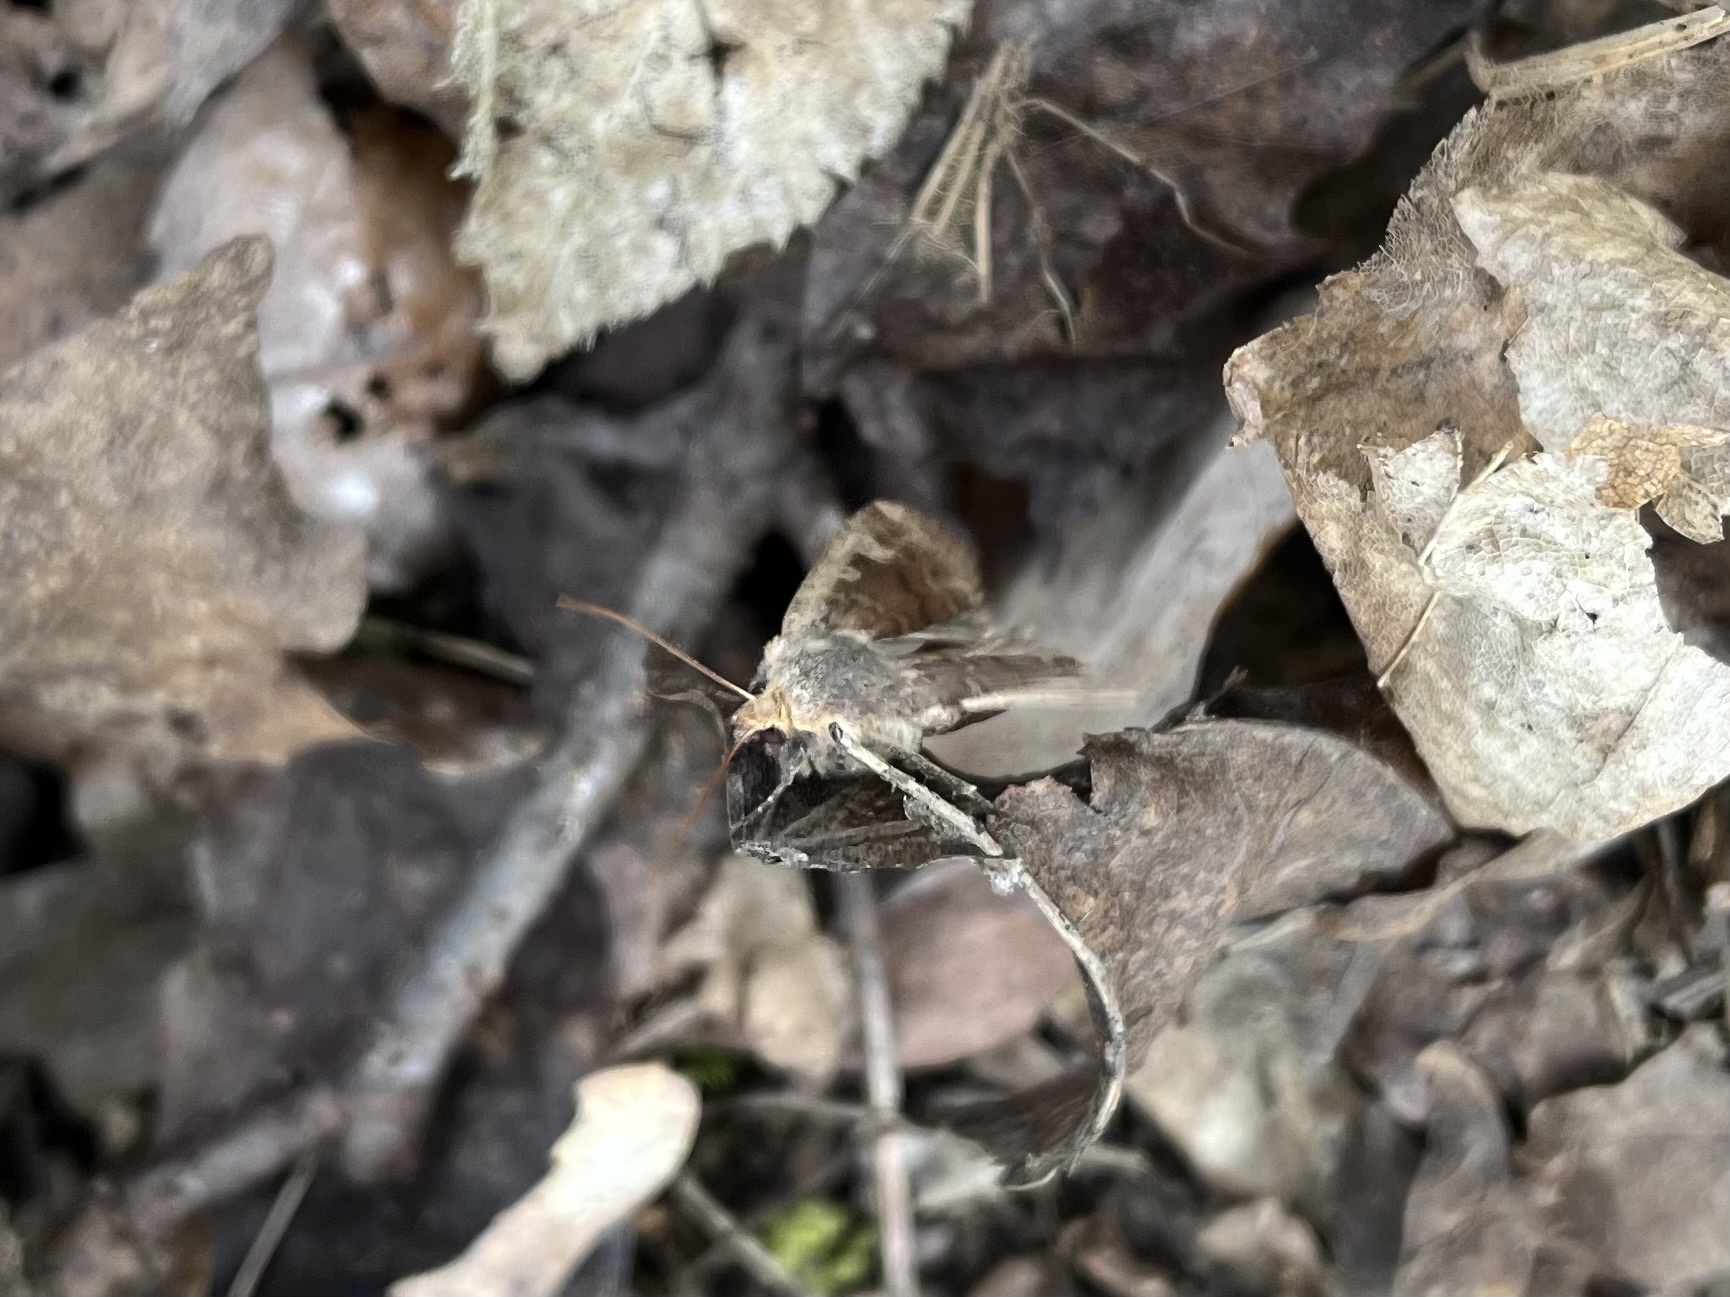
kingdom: Animalia
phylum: Arthropoda
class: Insecta
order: Lepidoptera
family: Noctuidae
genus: Conistra
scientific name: Conistra erythrocephala
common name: Red-headed chestnut
